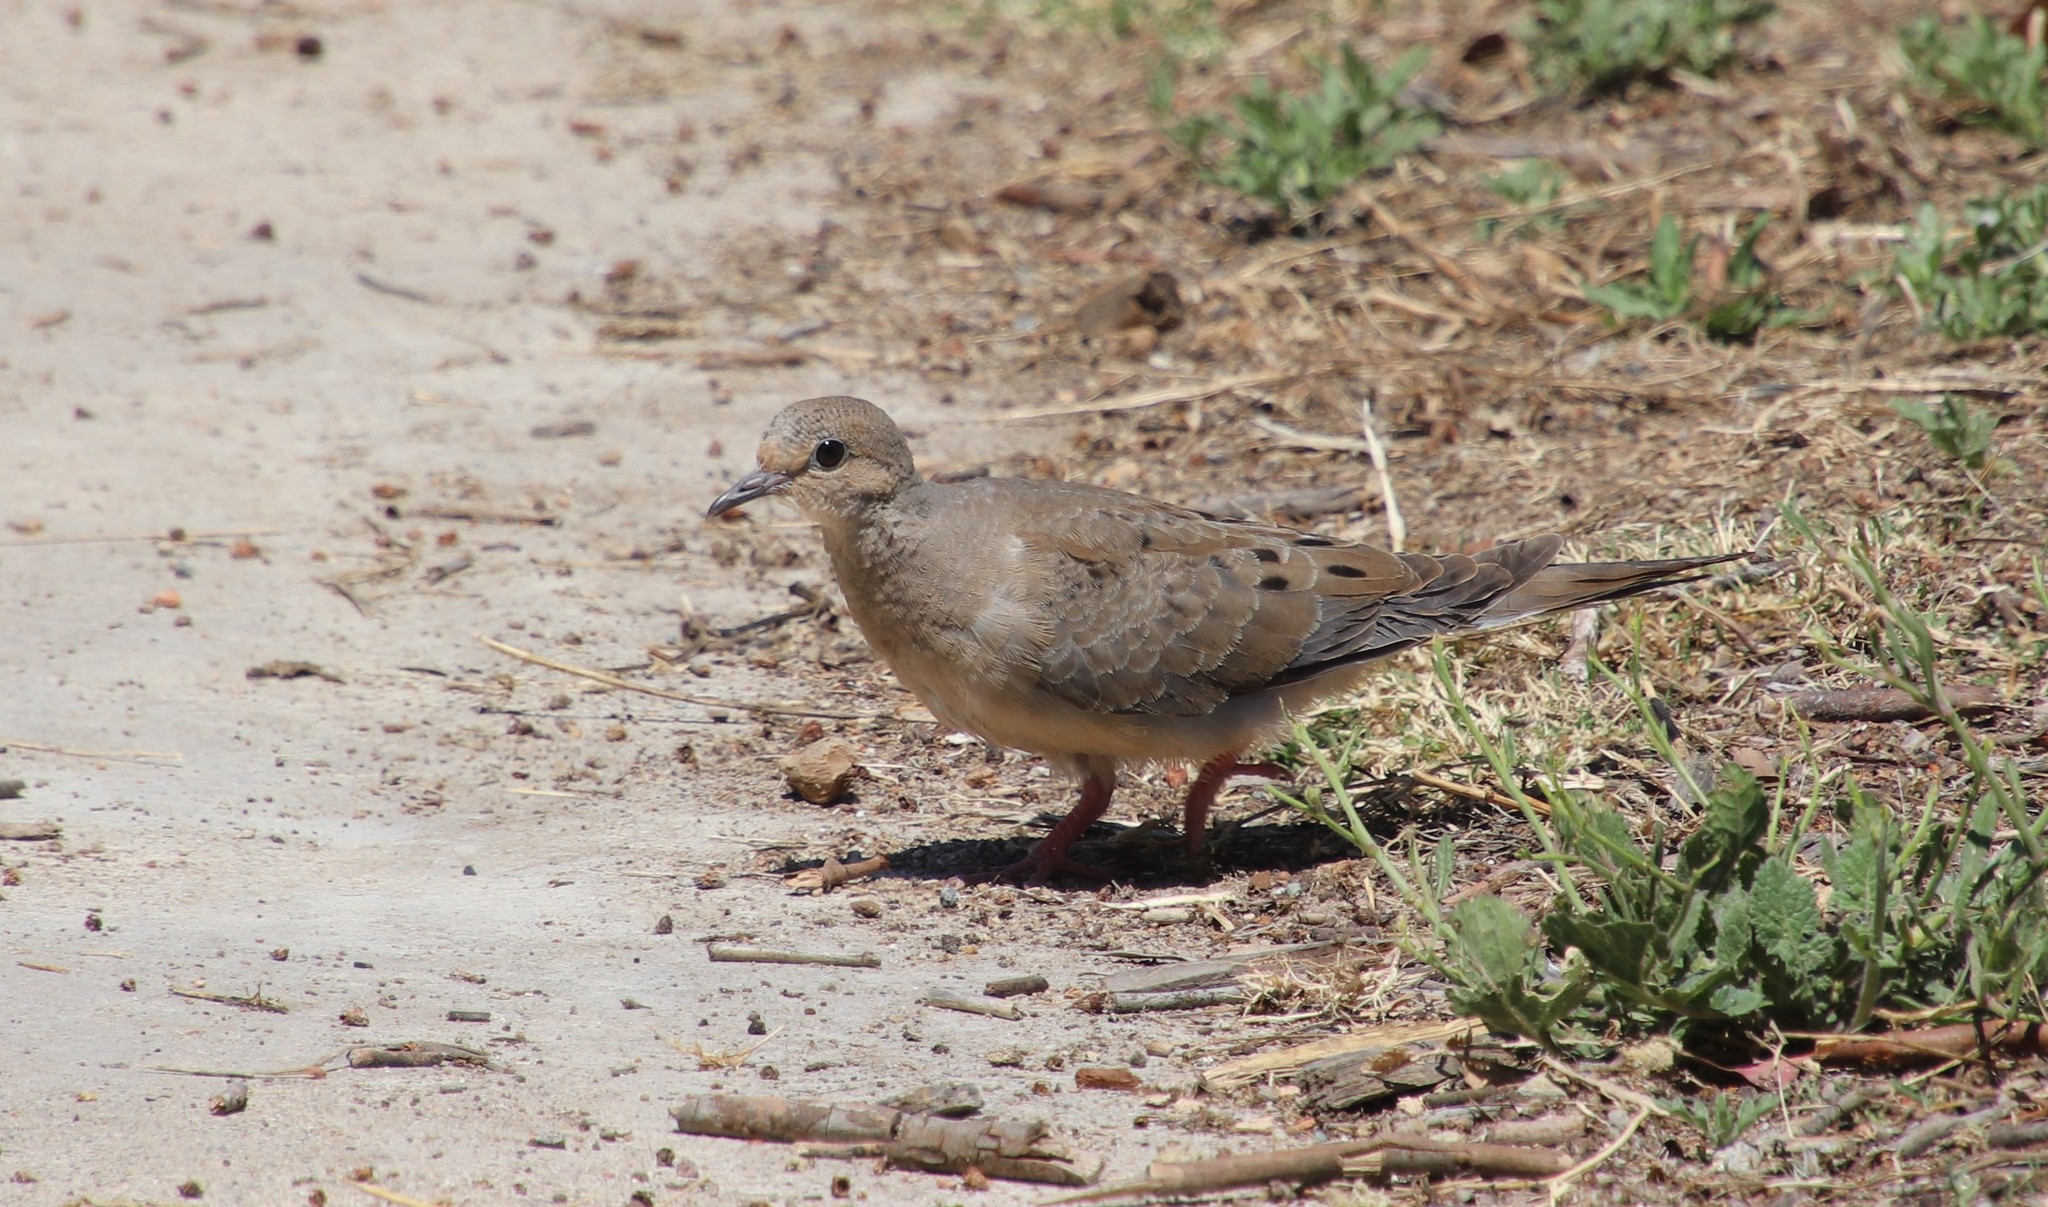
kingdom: Animalia
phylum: Chordata
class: Aves
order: Columbiformes
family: Columbidae
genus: Zenaida
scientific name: Zenaida macroura
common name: Mourning dove
